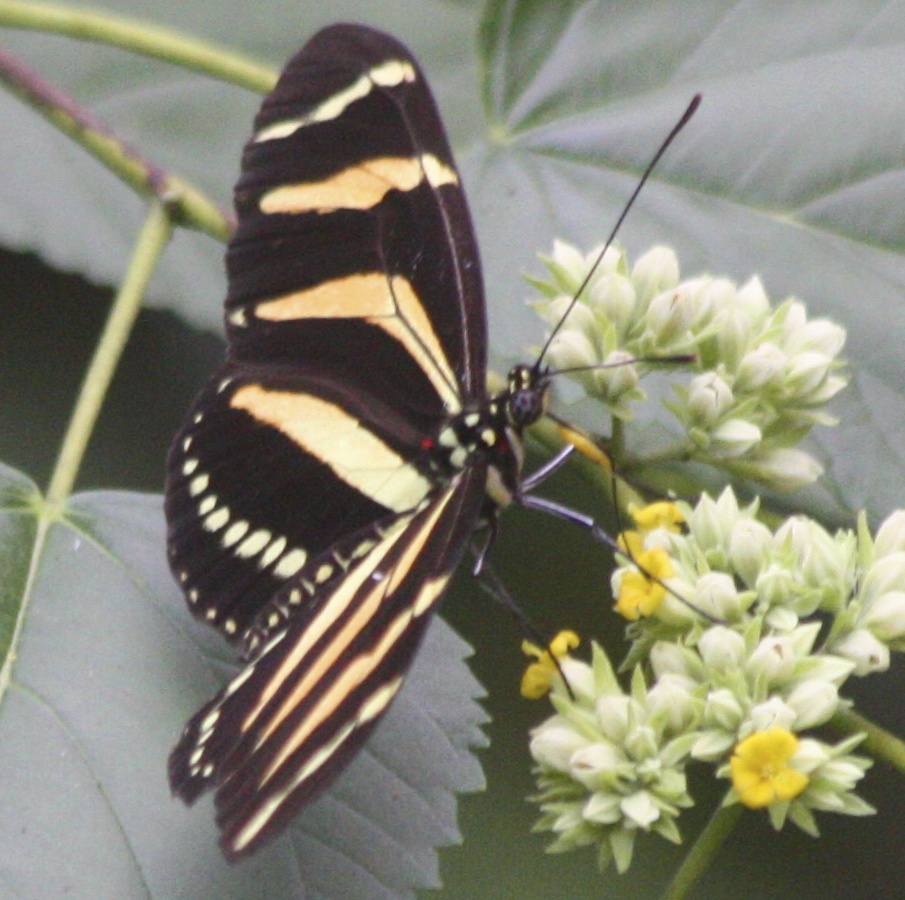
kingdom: Animalia
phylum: Arthropoda
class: Insecta
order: Lepidoptera
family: Nymphalidae
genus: Heliconius
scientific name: Heliconius charithonia
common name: Zebra long wing
